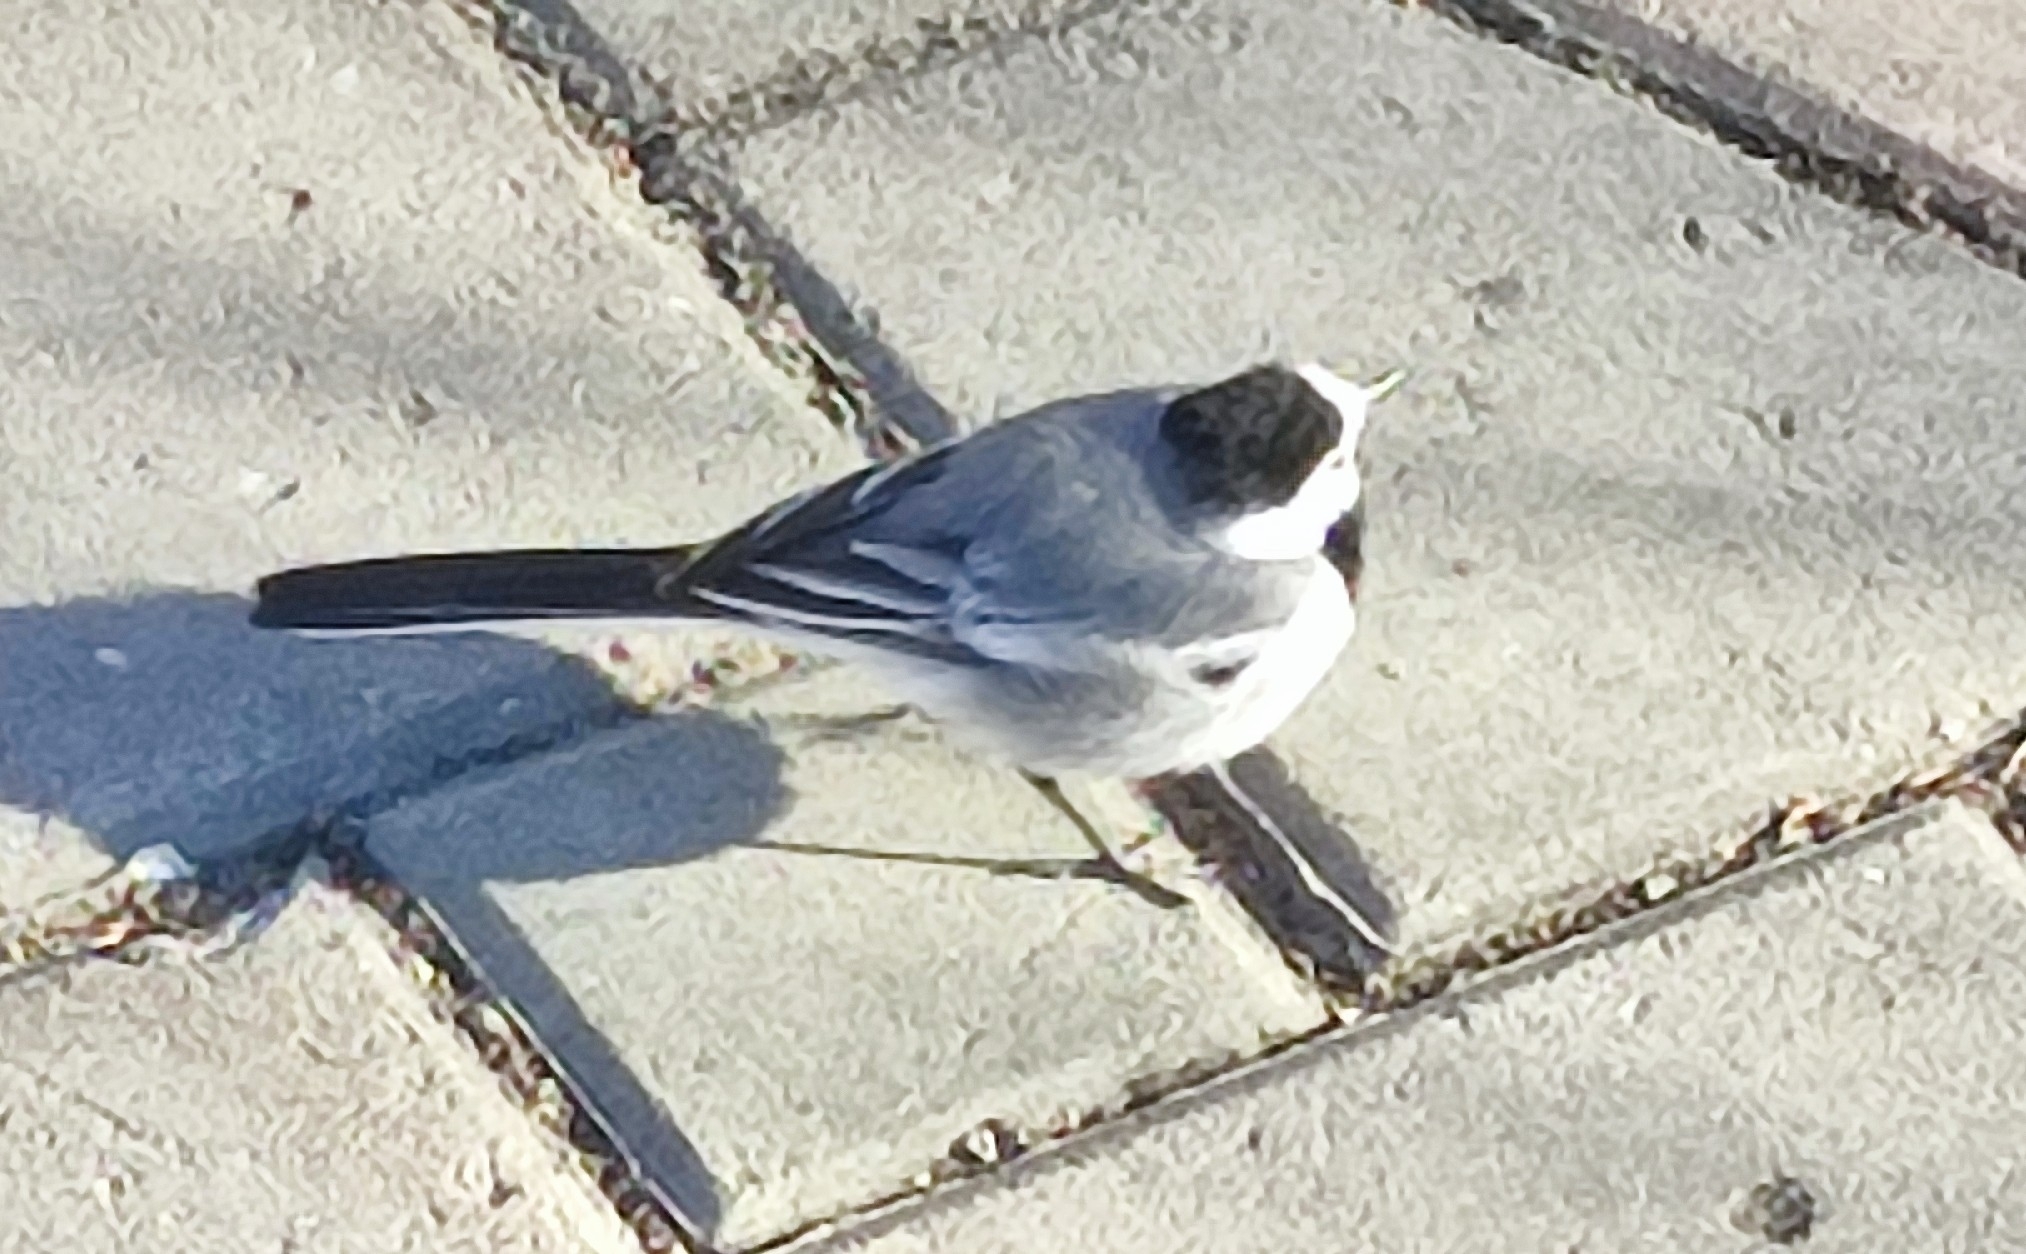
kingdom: Animalia
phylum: Chordata
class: Aves
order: Passeriformes
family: Motacillidae
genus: Motacilla
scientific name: Motacilla alba
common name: White wagtail
